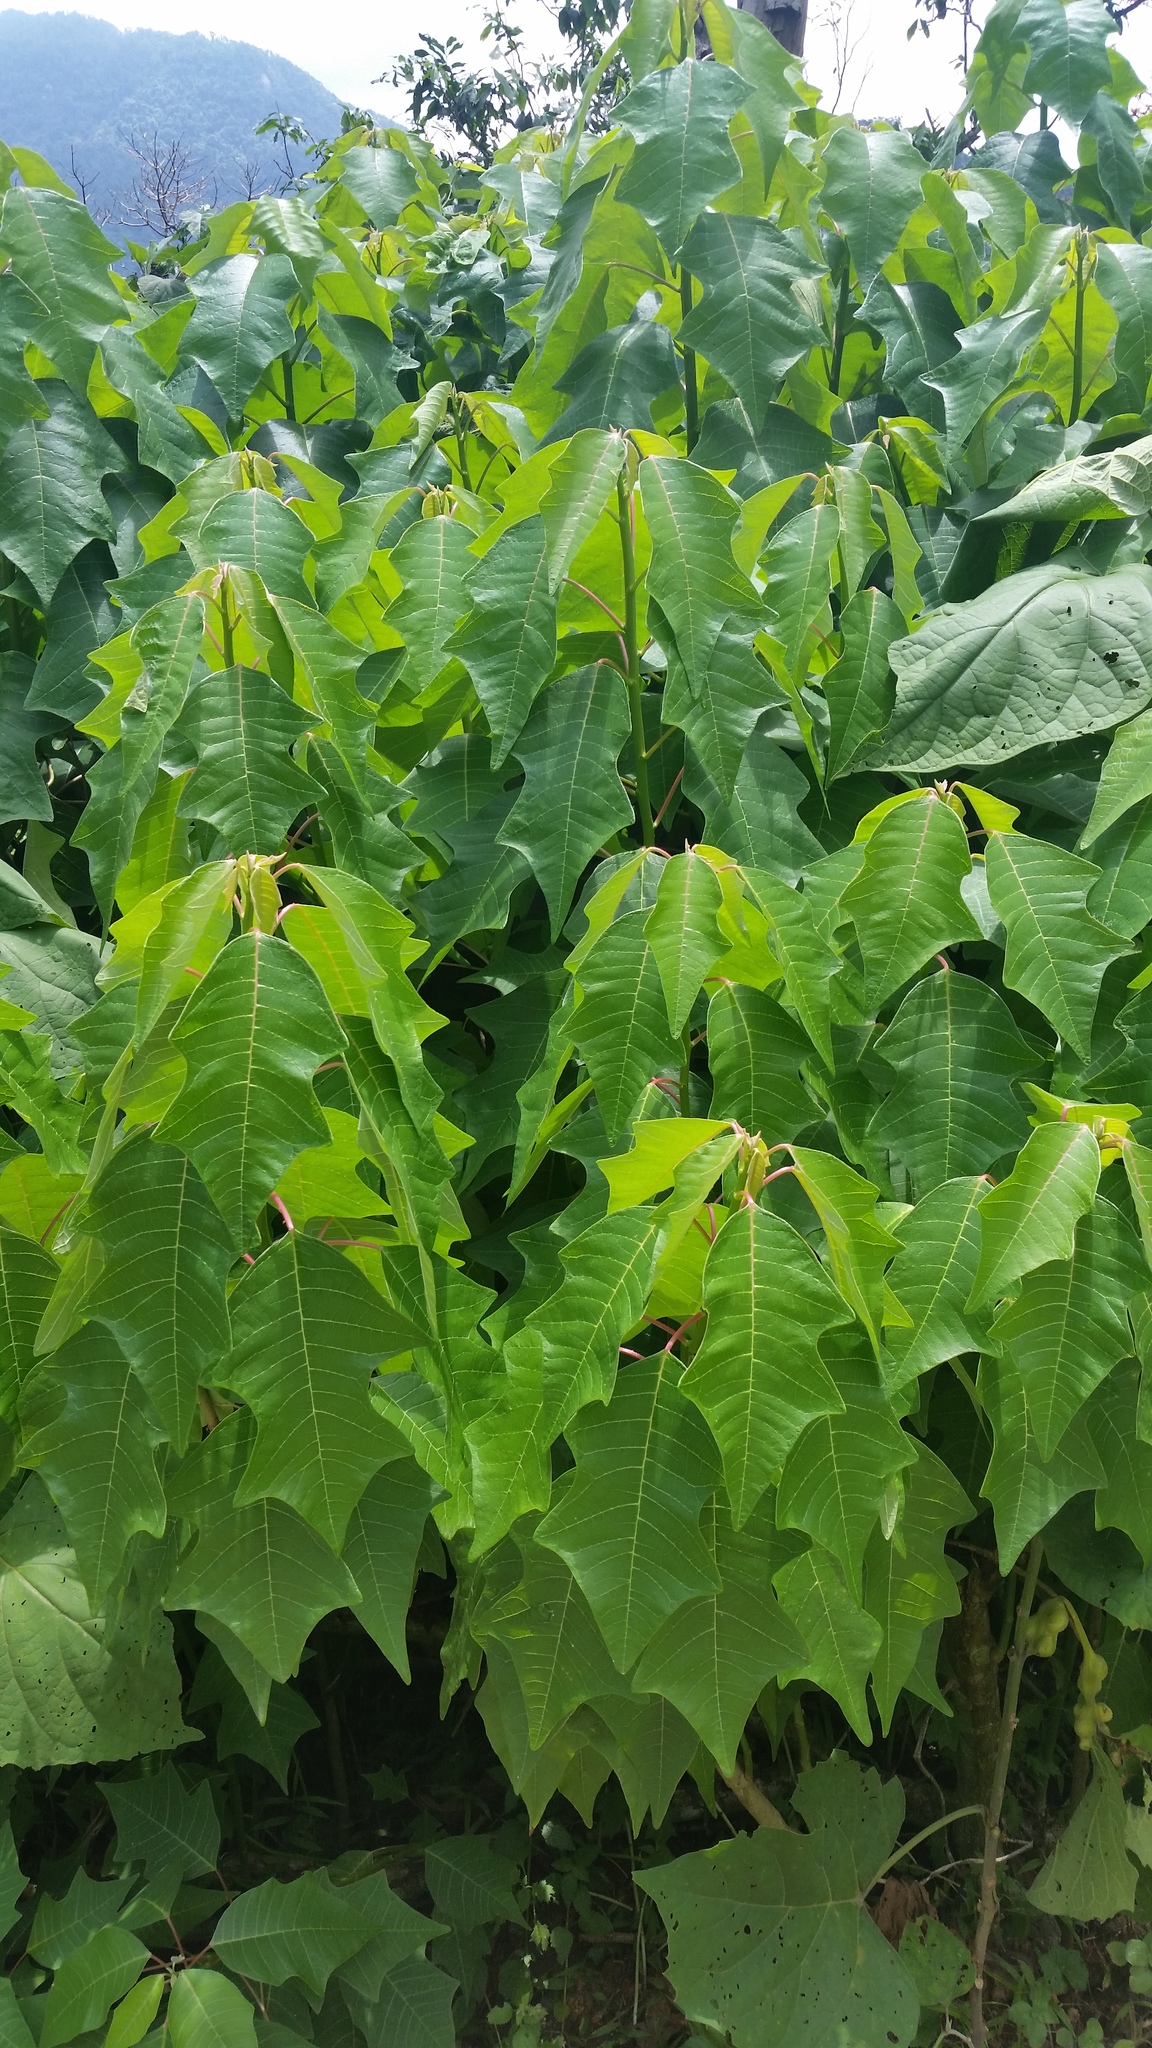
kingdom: Plantae
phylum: Tracheophyta
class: Magnoliopsida
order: Malpighiales
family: Euphorbiaceae
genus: Euphorbia
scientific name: Euphorbia pulcherrima
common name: Christmas-flower
